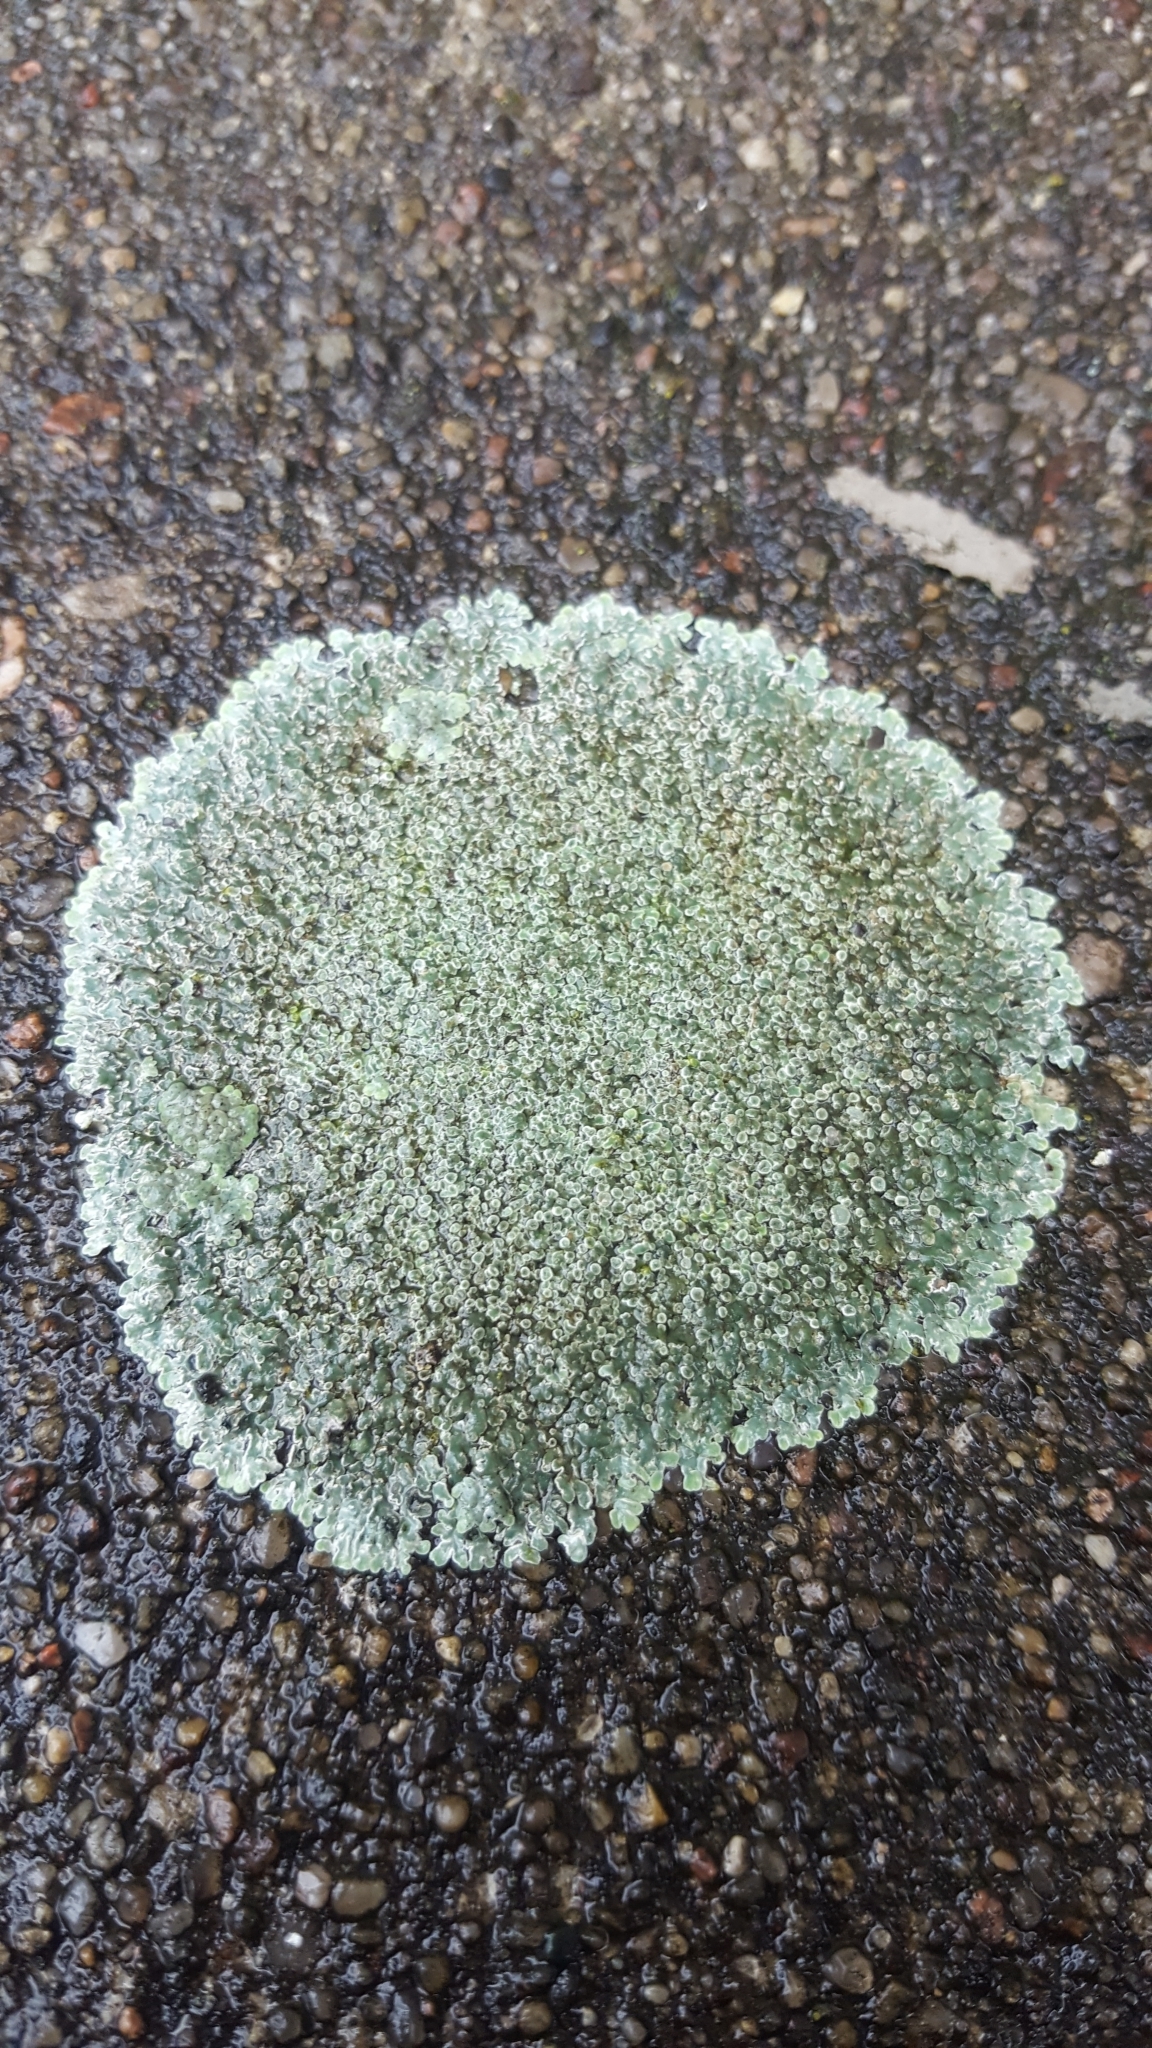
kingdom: Fungi
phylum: Ascomycota
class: Lecanoromycetes
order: Lecanorales
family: Lecanoraceae
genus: Protoparmeliopsis
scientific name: Protoparmeliopsis muralis
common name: Stonewall rim lichen
